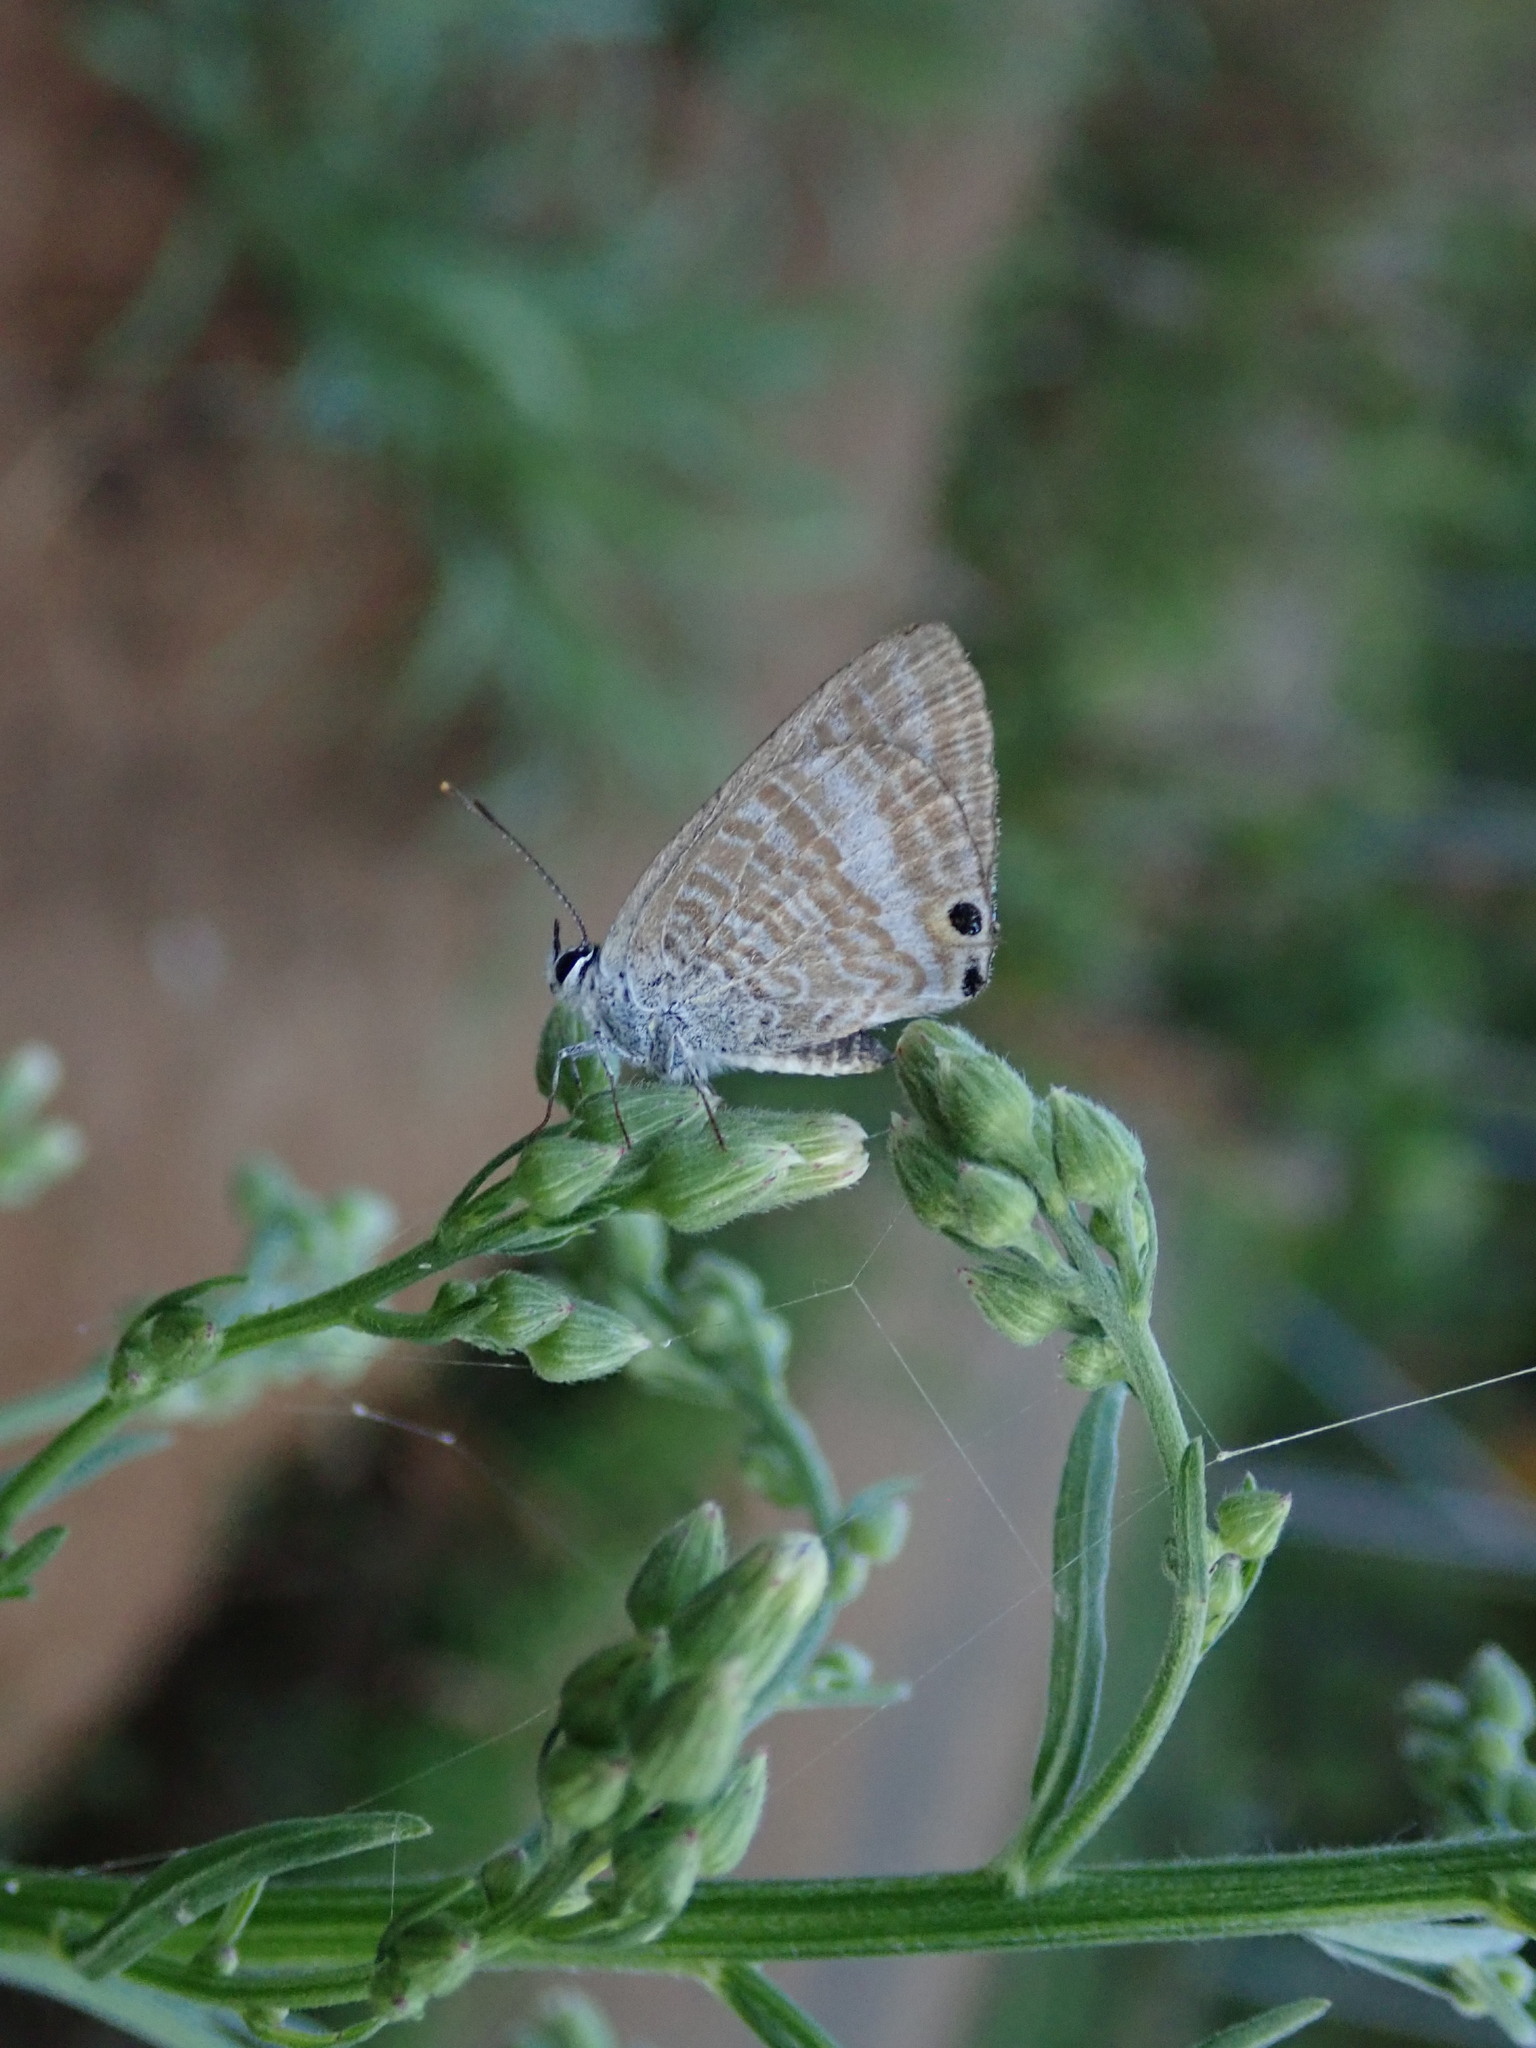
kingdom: Animalia
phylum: Arthropoda
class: Insecta
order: Lepidoptera
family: Lycaenidae
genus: Lampides
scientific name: Lampides boeticus
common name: Long-tailed blue
